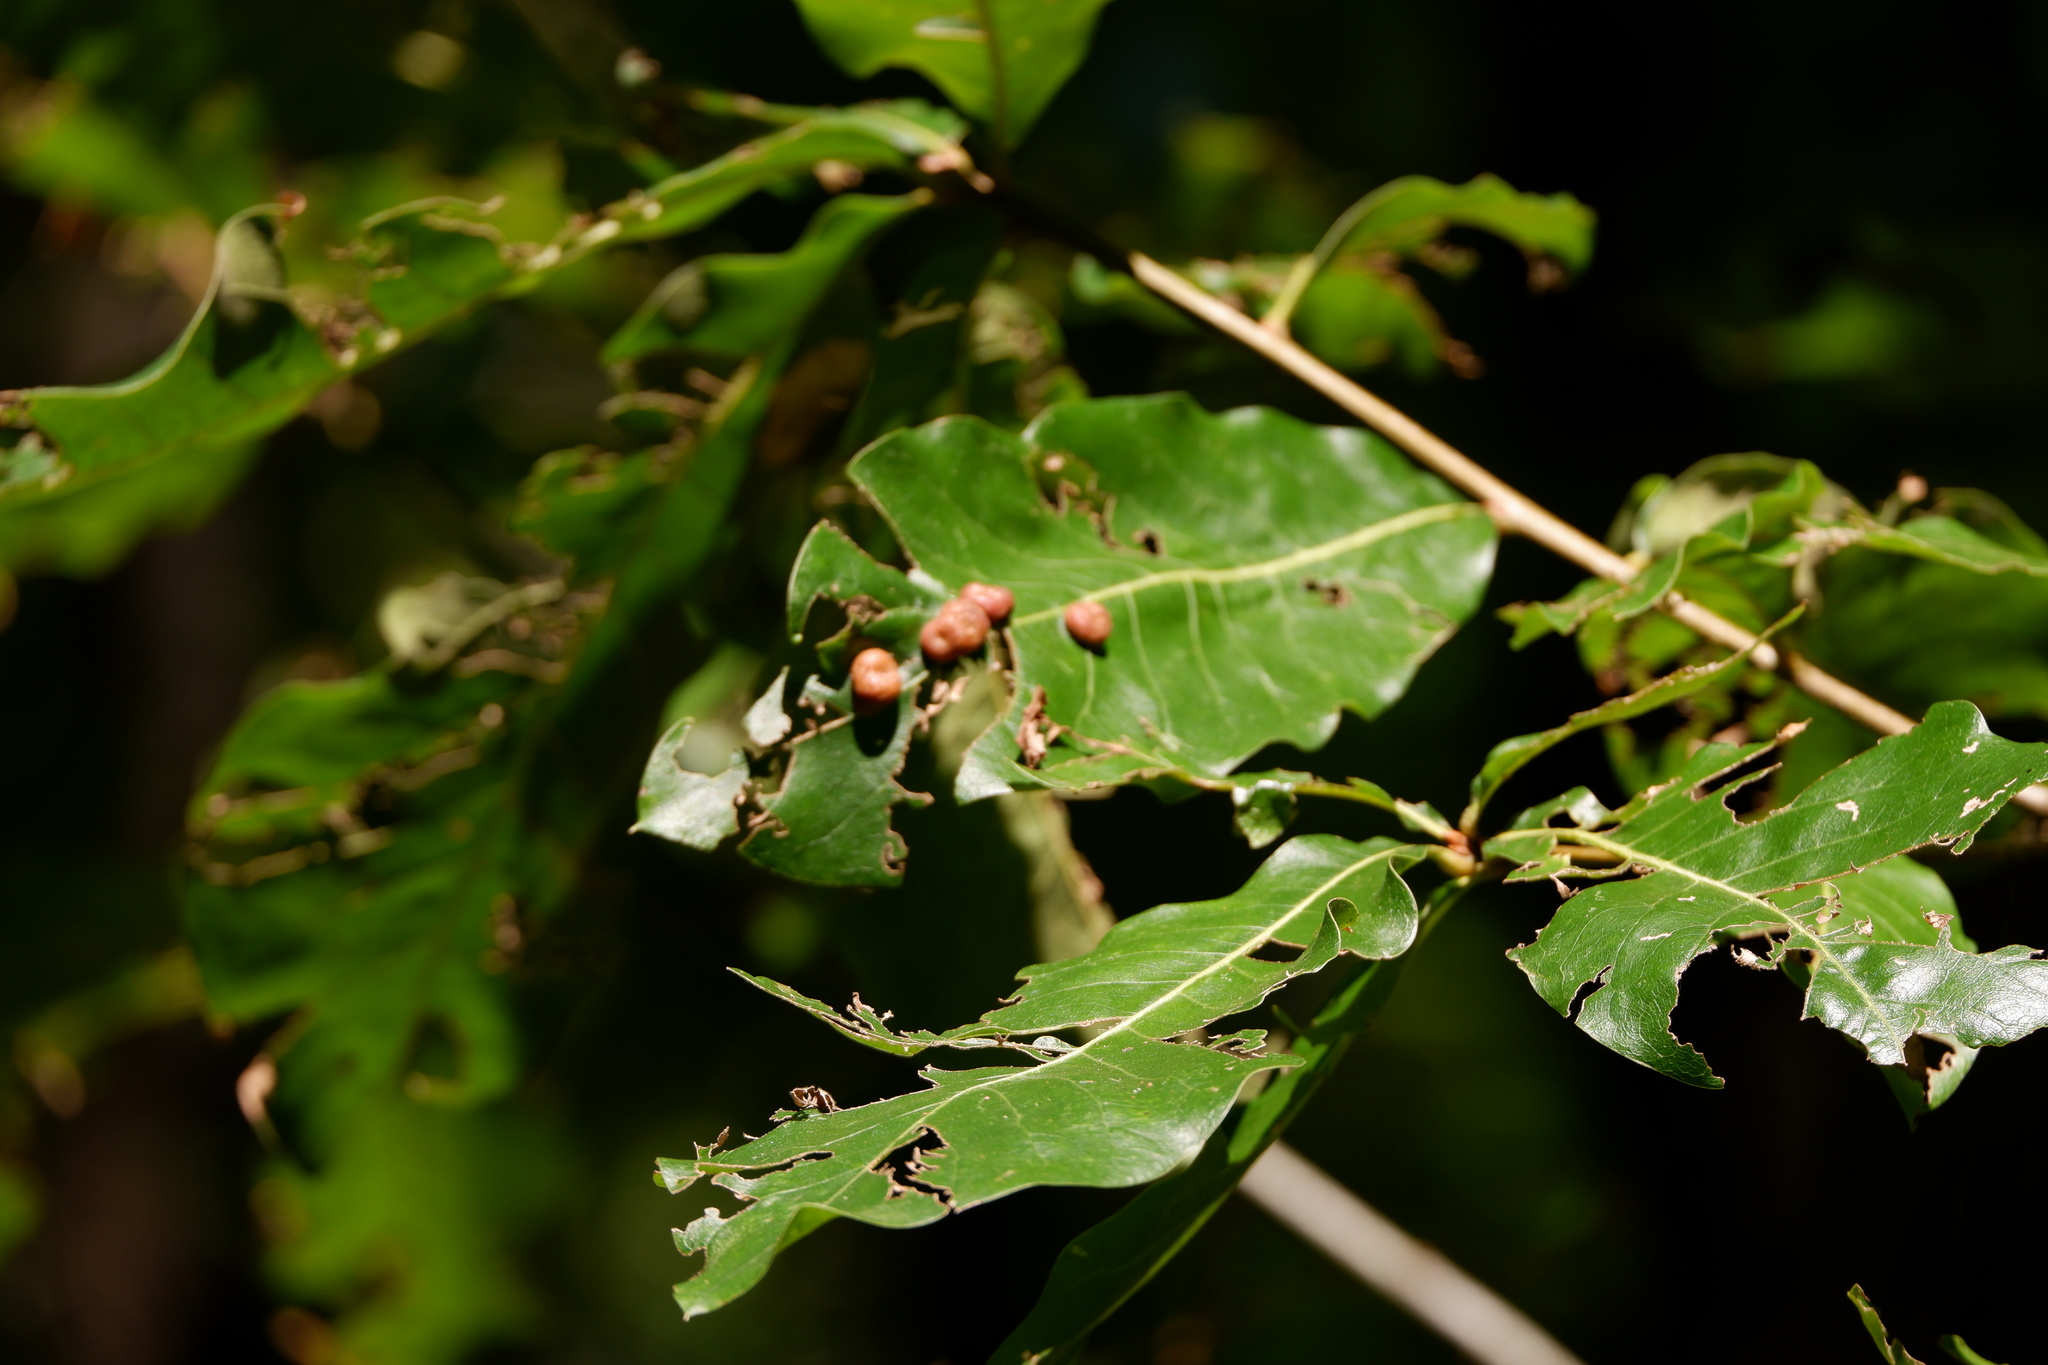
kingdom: Animalia
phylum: Arthropoda
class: Insecta
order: Diptera
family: Cecidomyiidae
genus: Polystepha
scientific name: Polystepha pilulae
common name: Oak leaf gall midge
